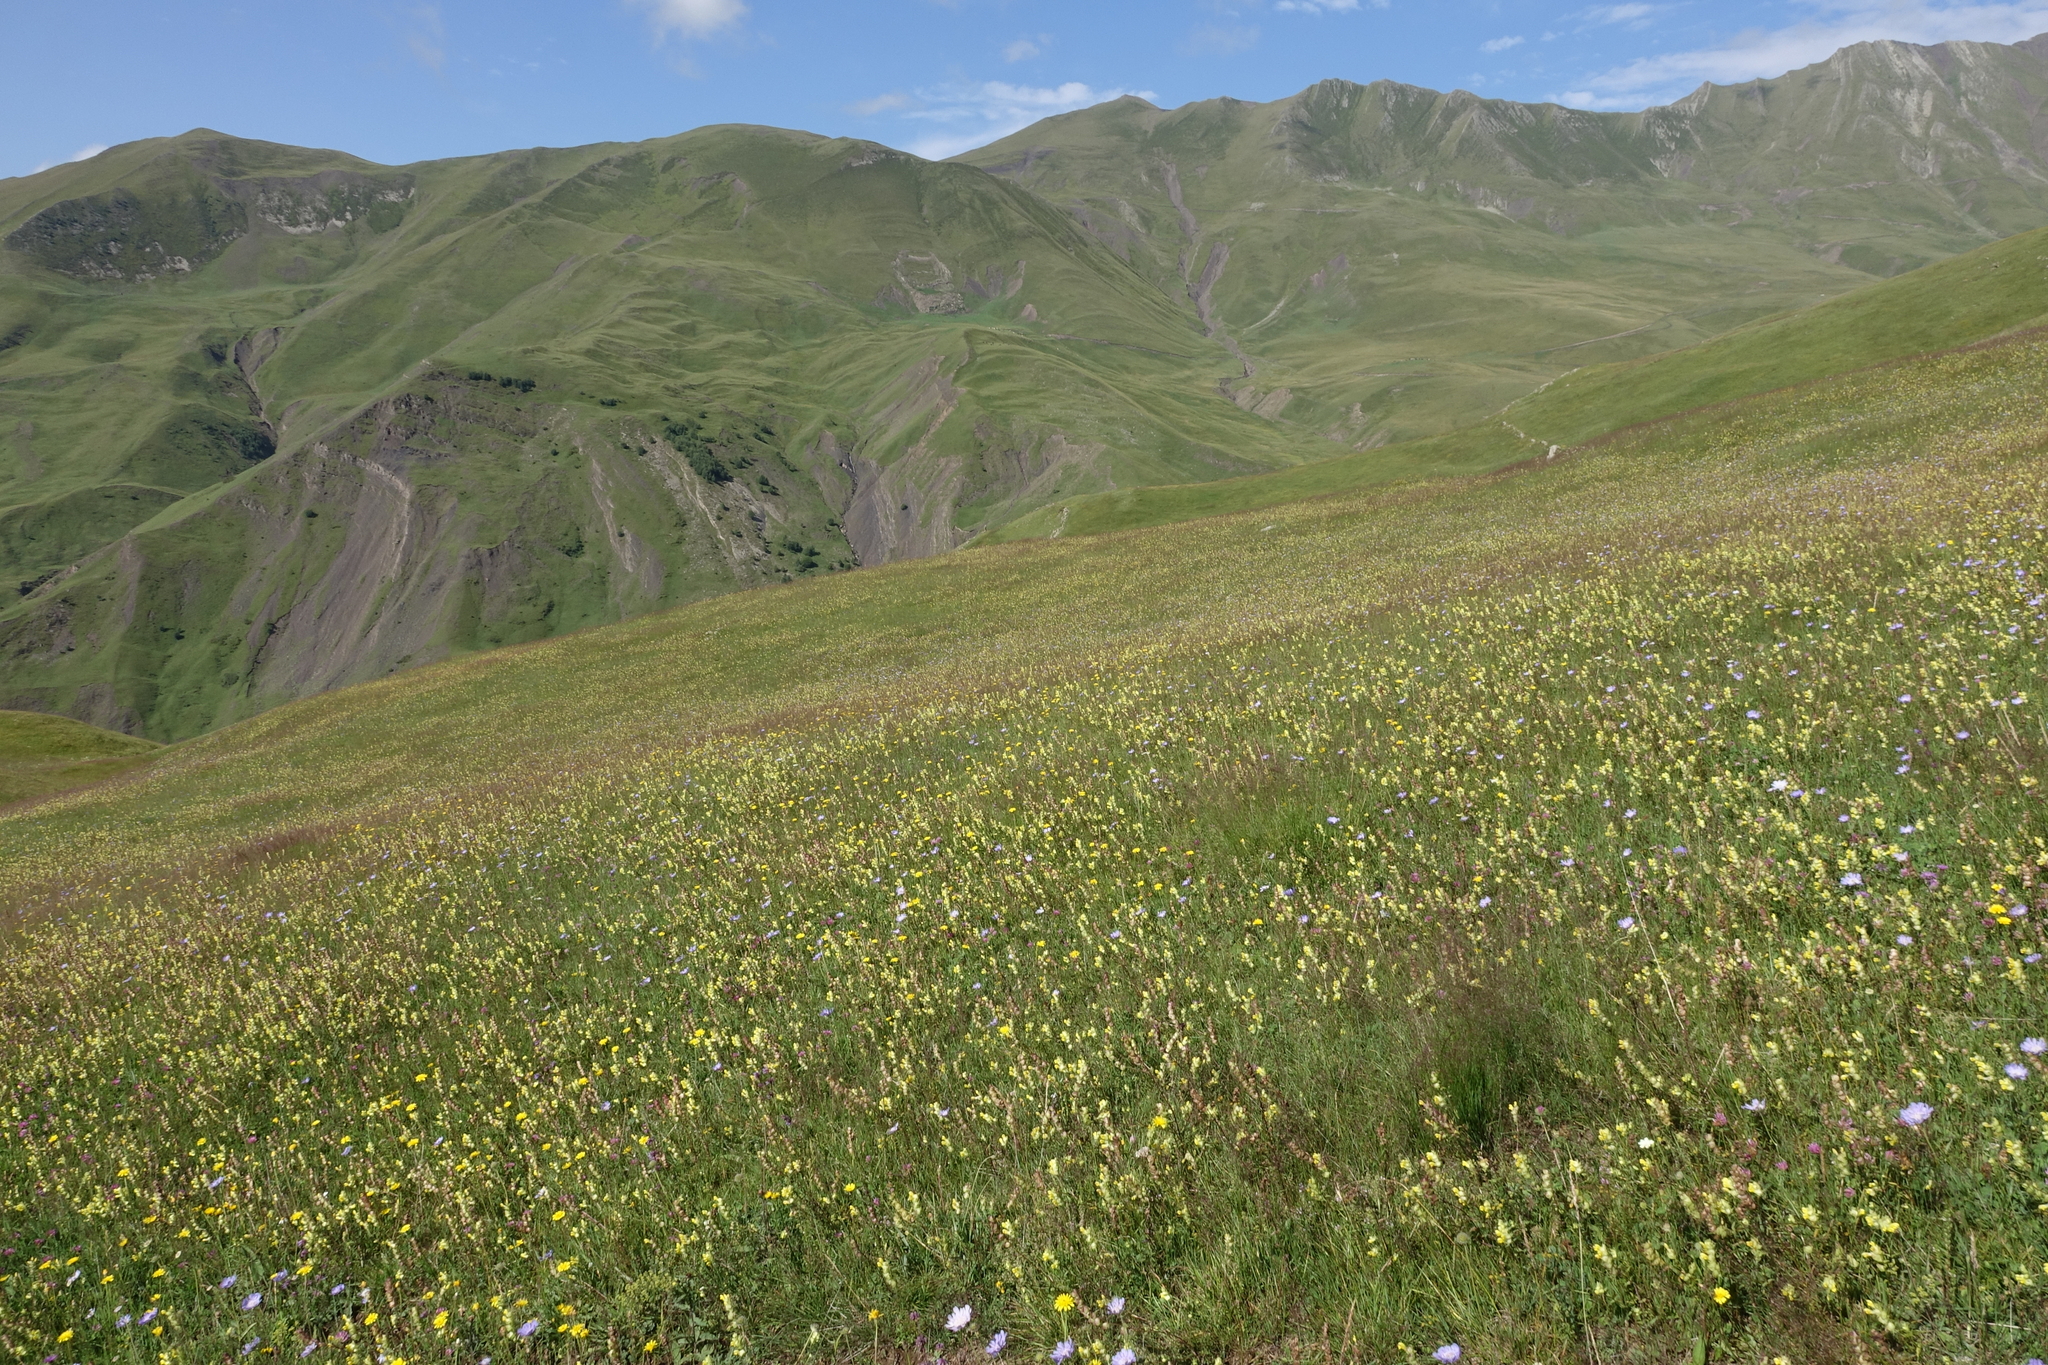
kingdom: Plantae
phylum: Tracheophyta
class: Magnoliopsida
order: Lamiales
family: Orobanchaceae
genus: Rhinanthus
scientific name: Rhinanthus serotinus
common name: Late-flowering yellow rattle
